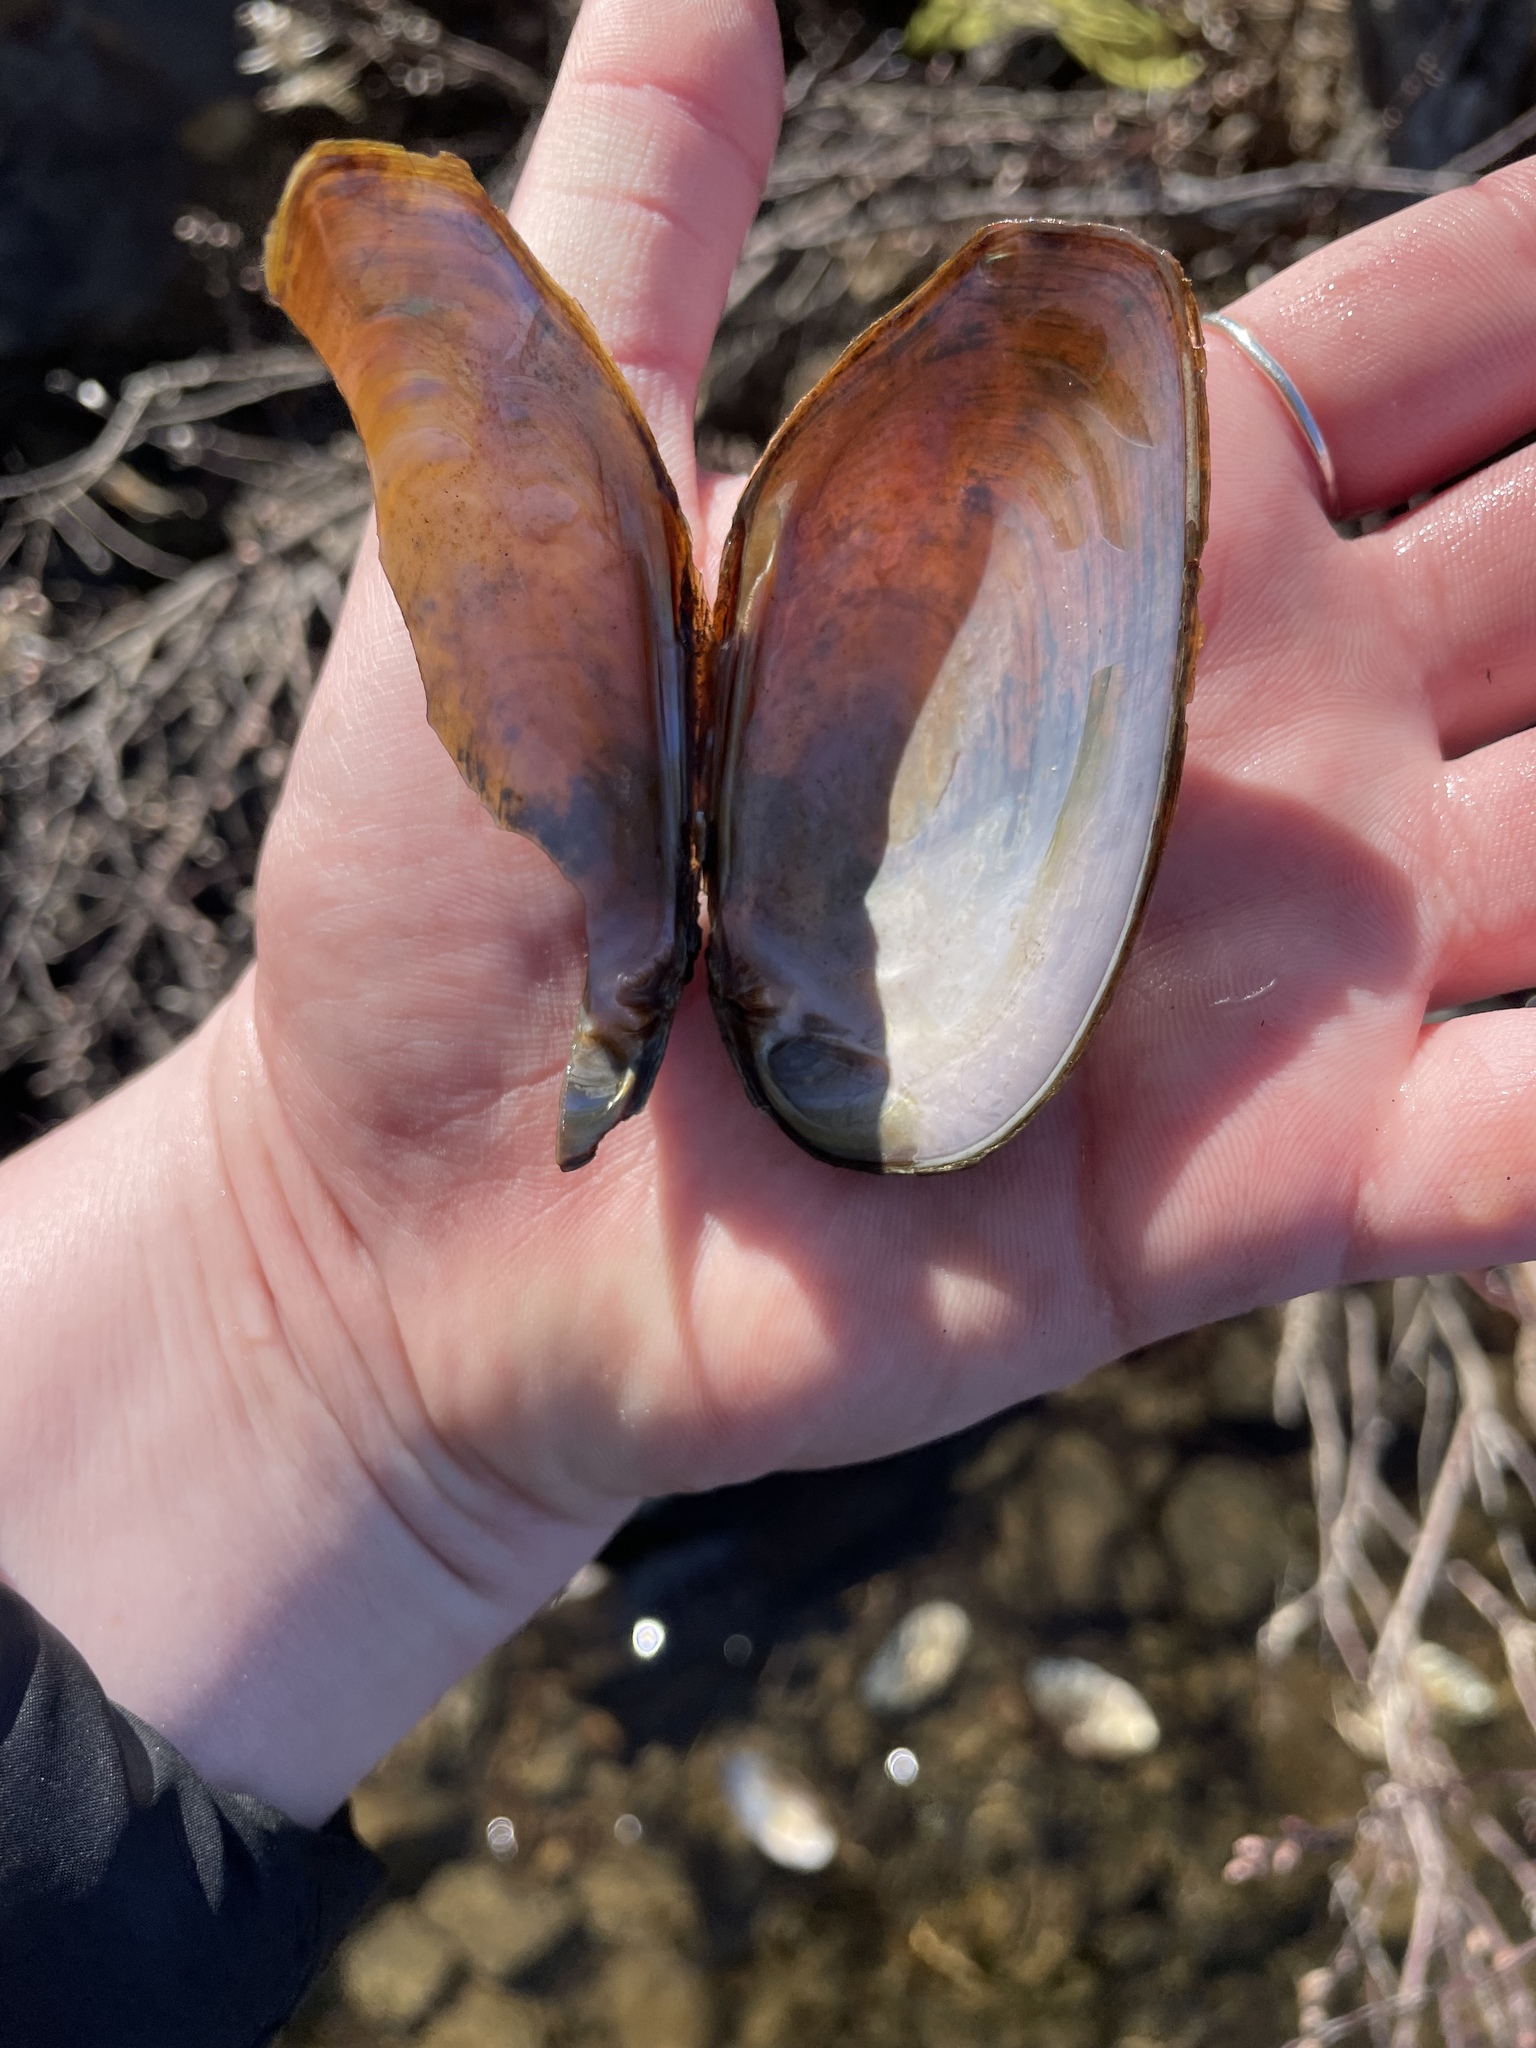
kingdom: Animalia
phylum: Mollusca
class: Bivalvia
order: Unionida
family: Unionidae
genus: Elliptio
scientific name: Elliptio complanata
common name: Eastern elliptio
